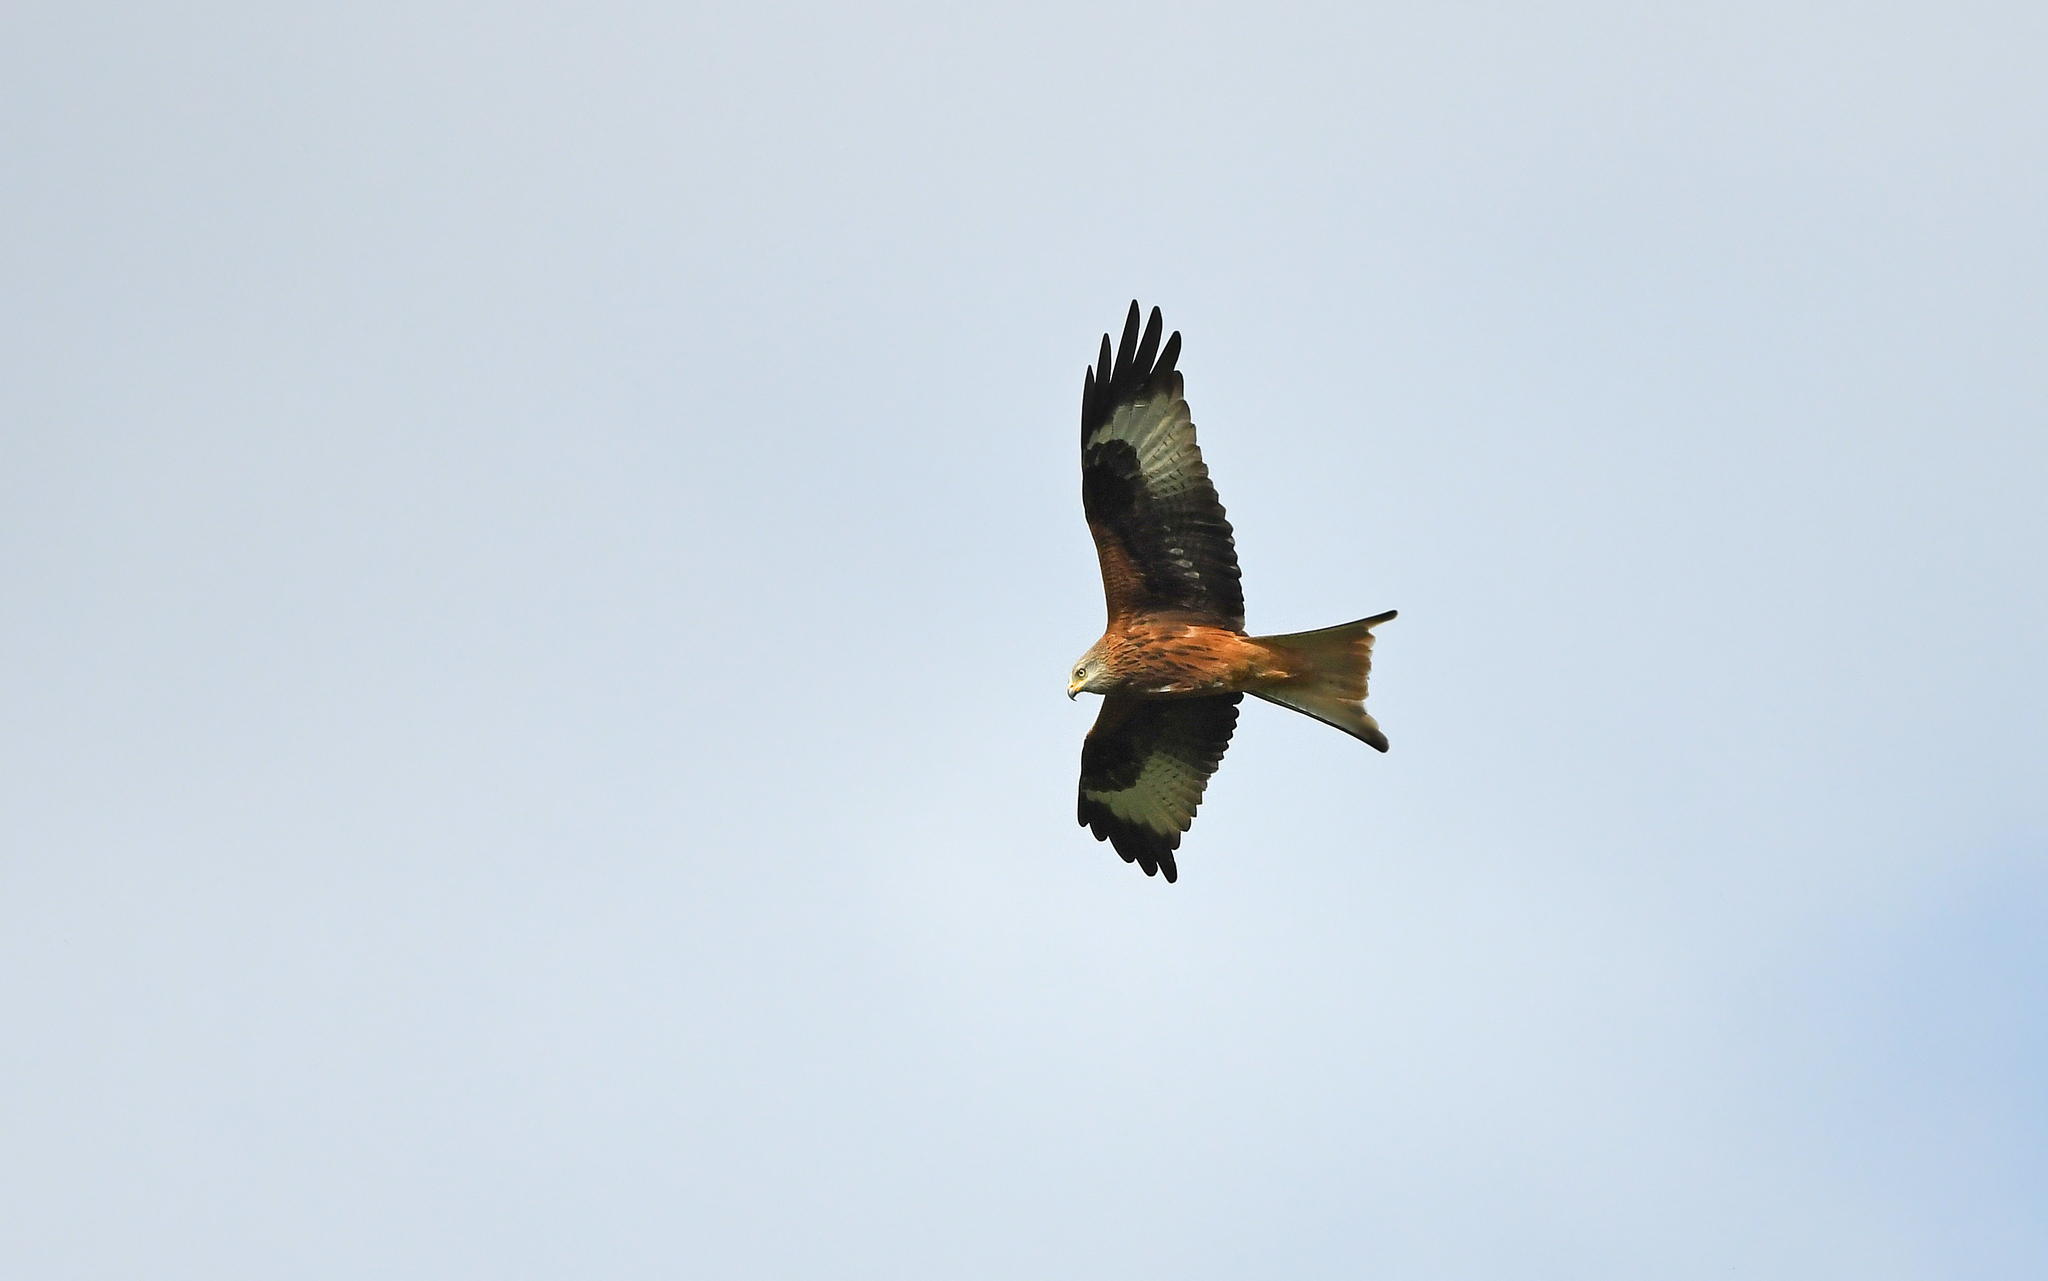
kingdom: Animalia
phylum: Chordata
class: Aves
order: Accipitriformes
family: Accipitridae
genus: Milvus
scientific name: Milvus milvus
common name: Red kite
